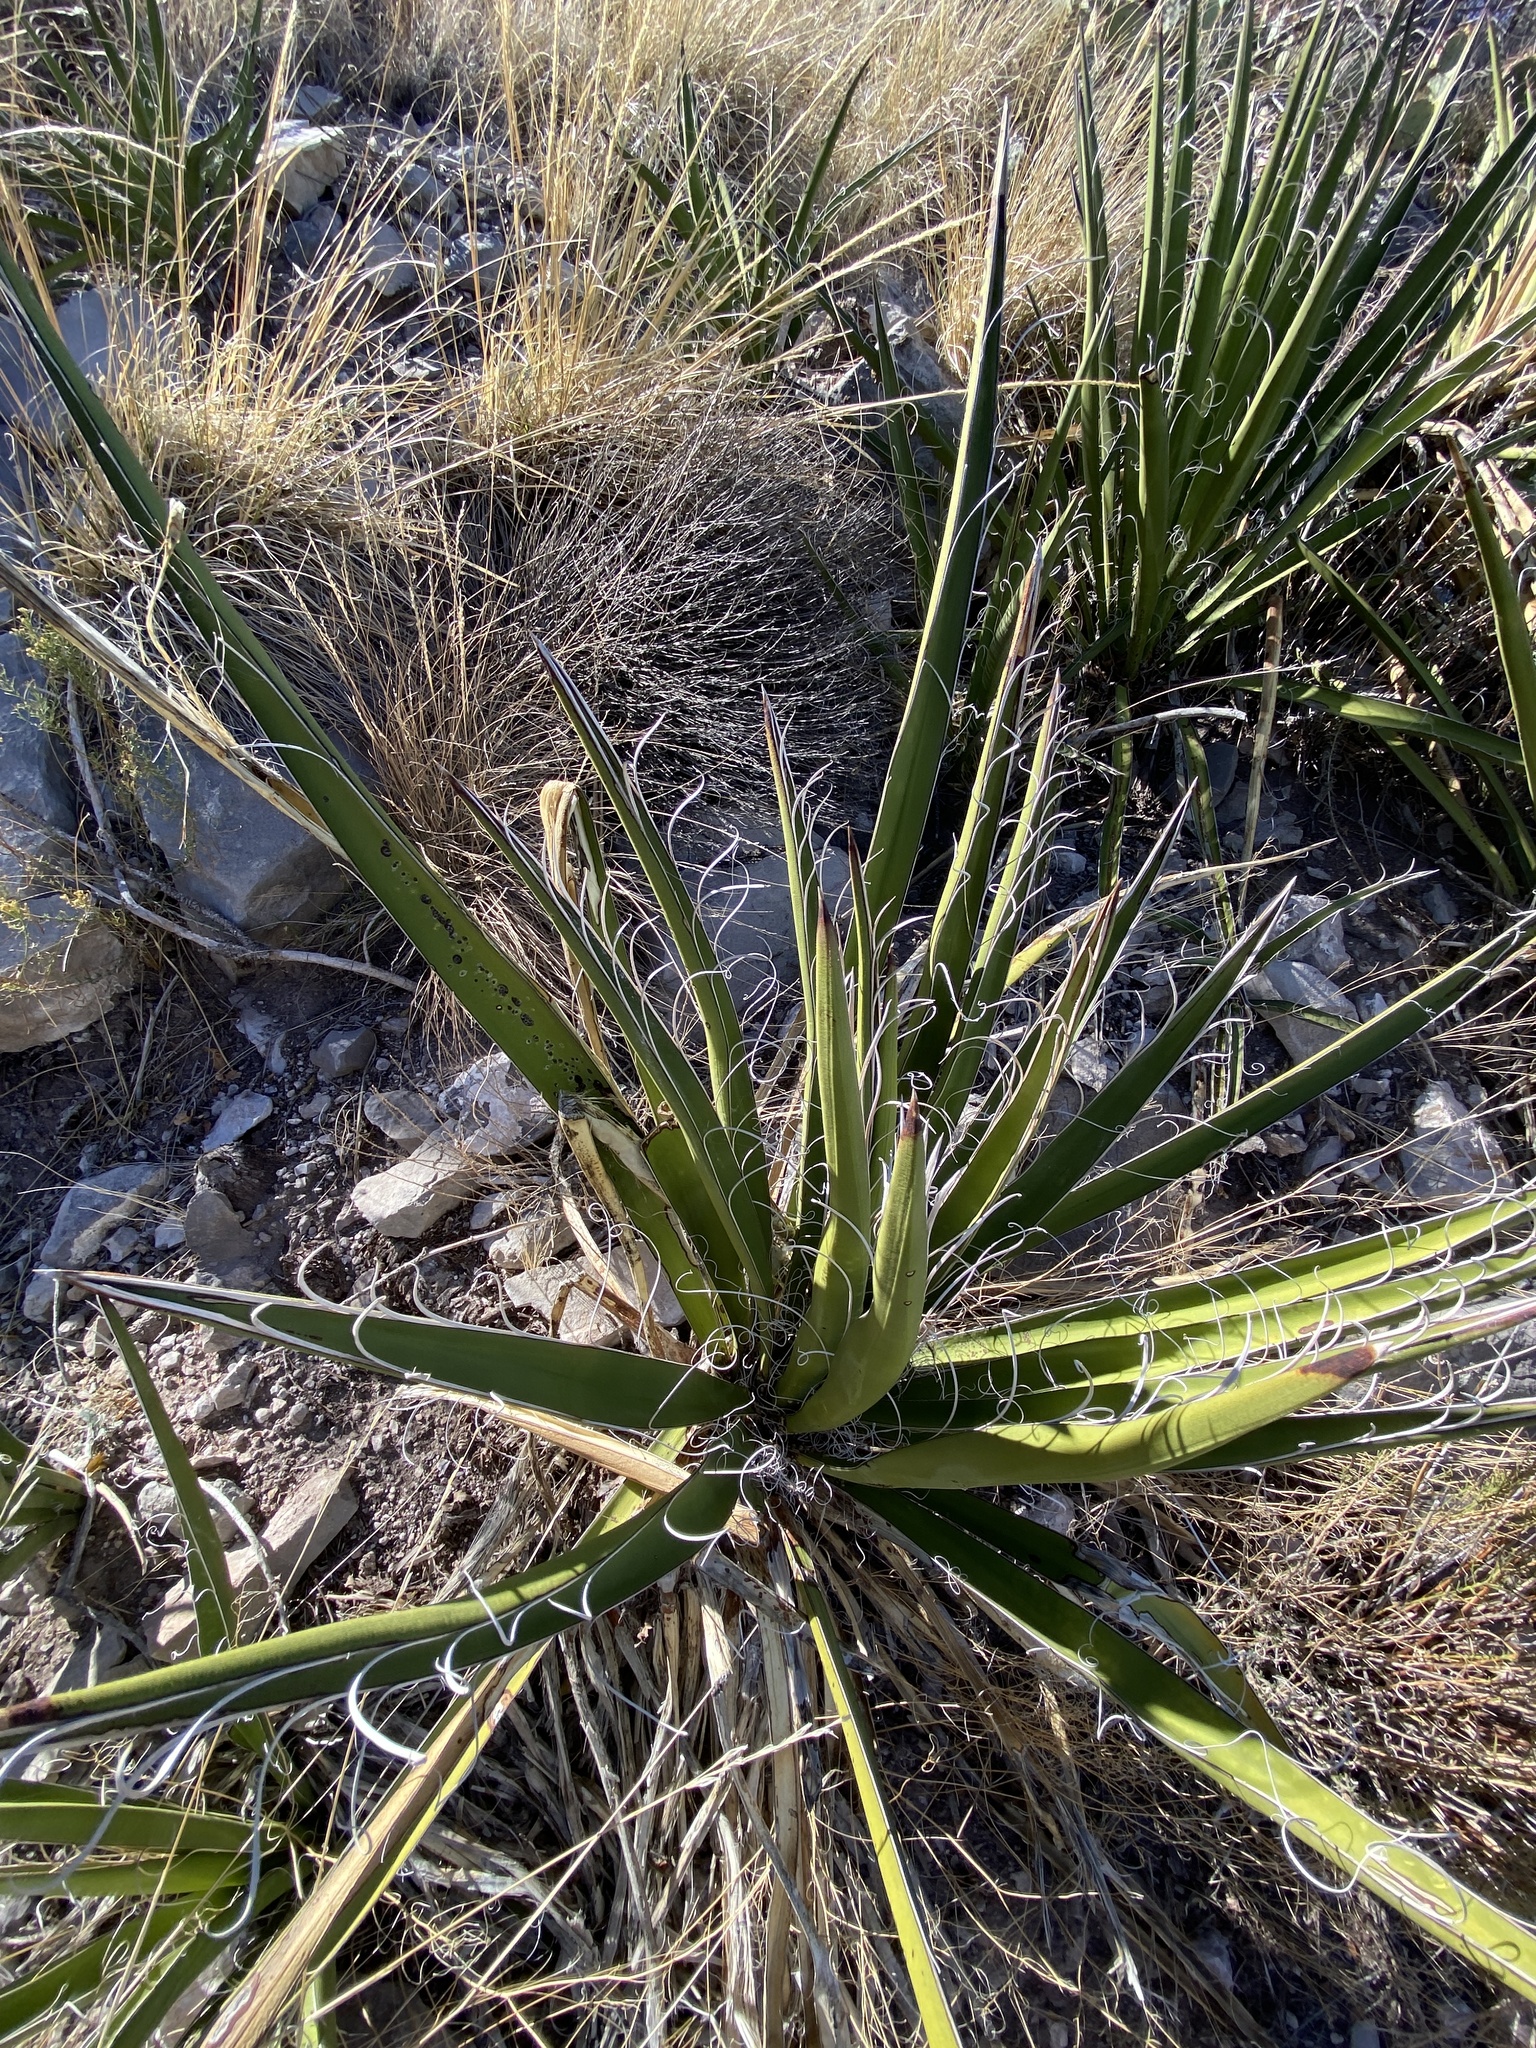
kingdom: Plantae
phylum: Tracheophyta
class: Liliopsida
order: Asparagales
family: Asparagaceae
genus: Yucca
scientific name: Yucca baccata
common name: Banana yucca
